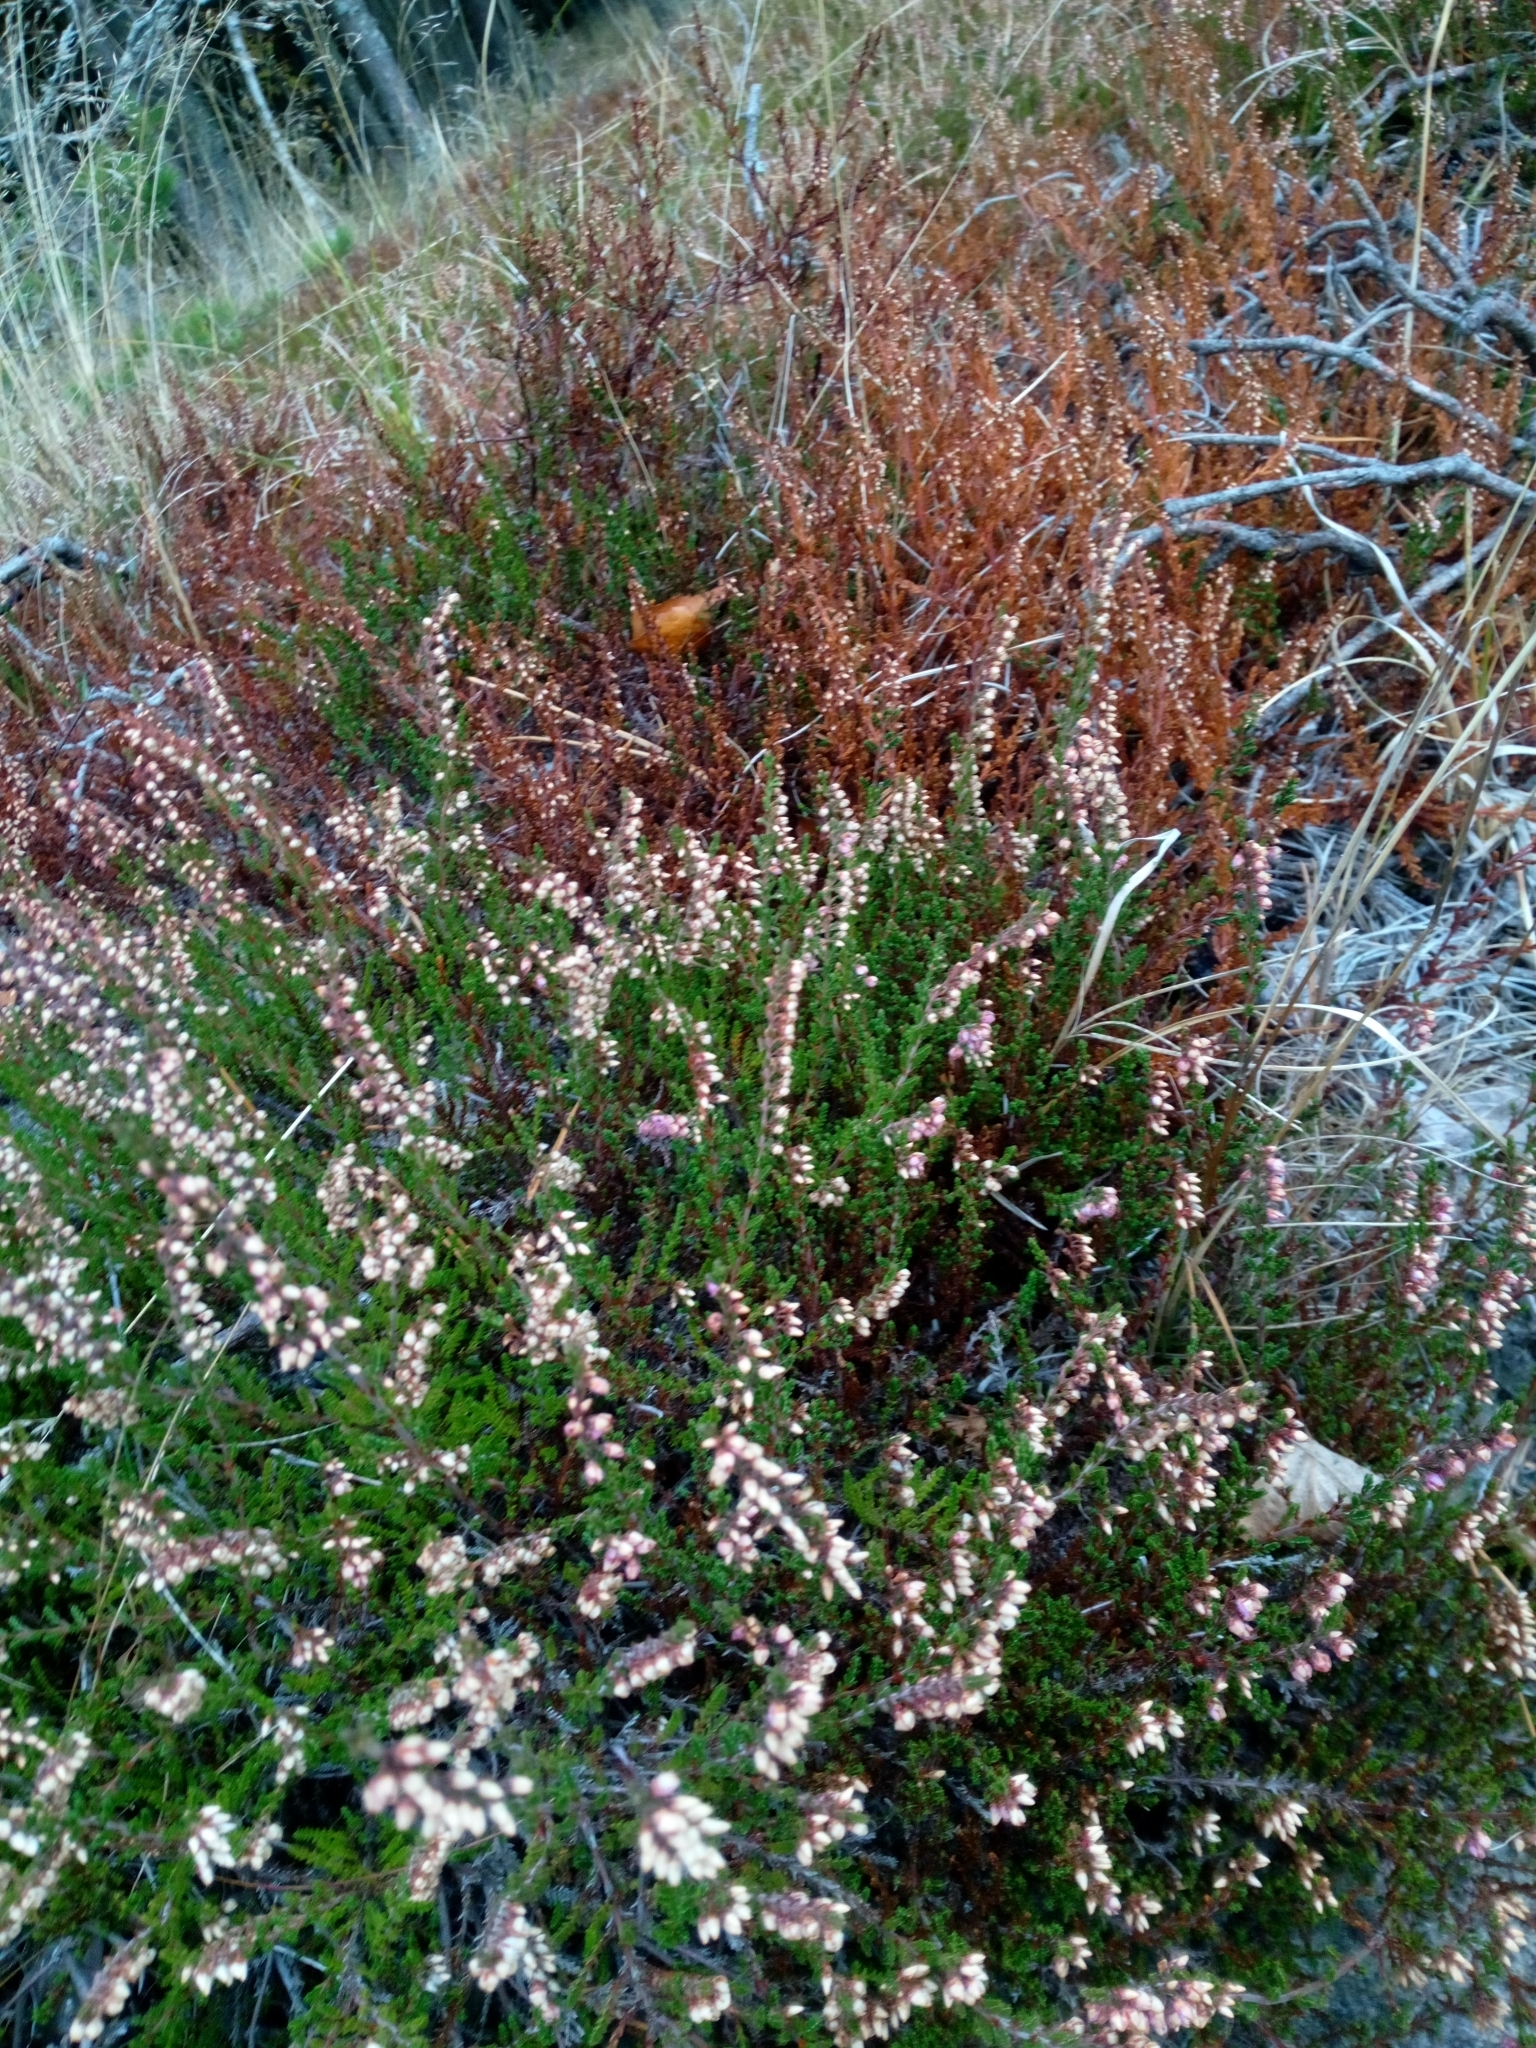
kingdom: Plantae
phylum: Tracheophyta
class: Magnoliopsida
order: Ericales
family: Ericaceae
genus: Calluna
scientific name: Calluna vulgaris
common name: Heather
